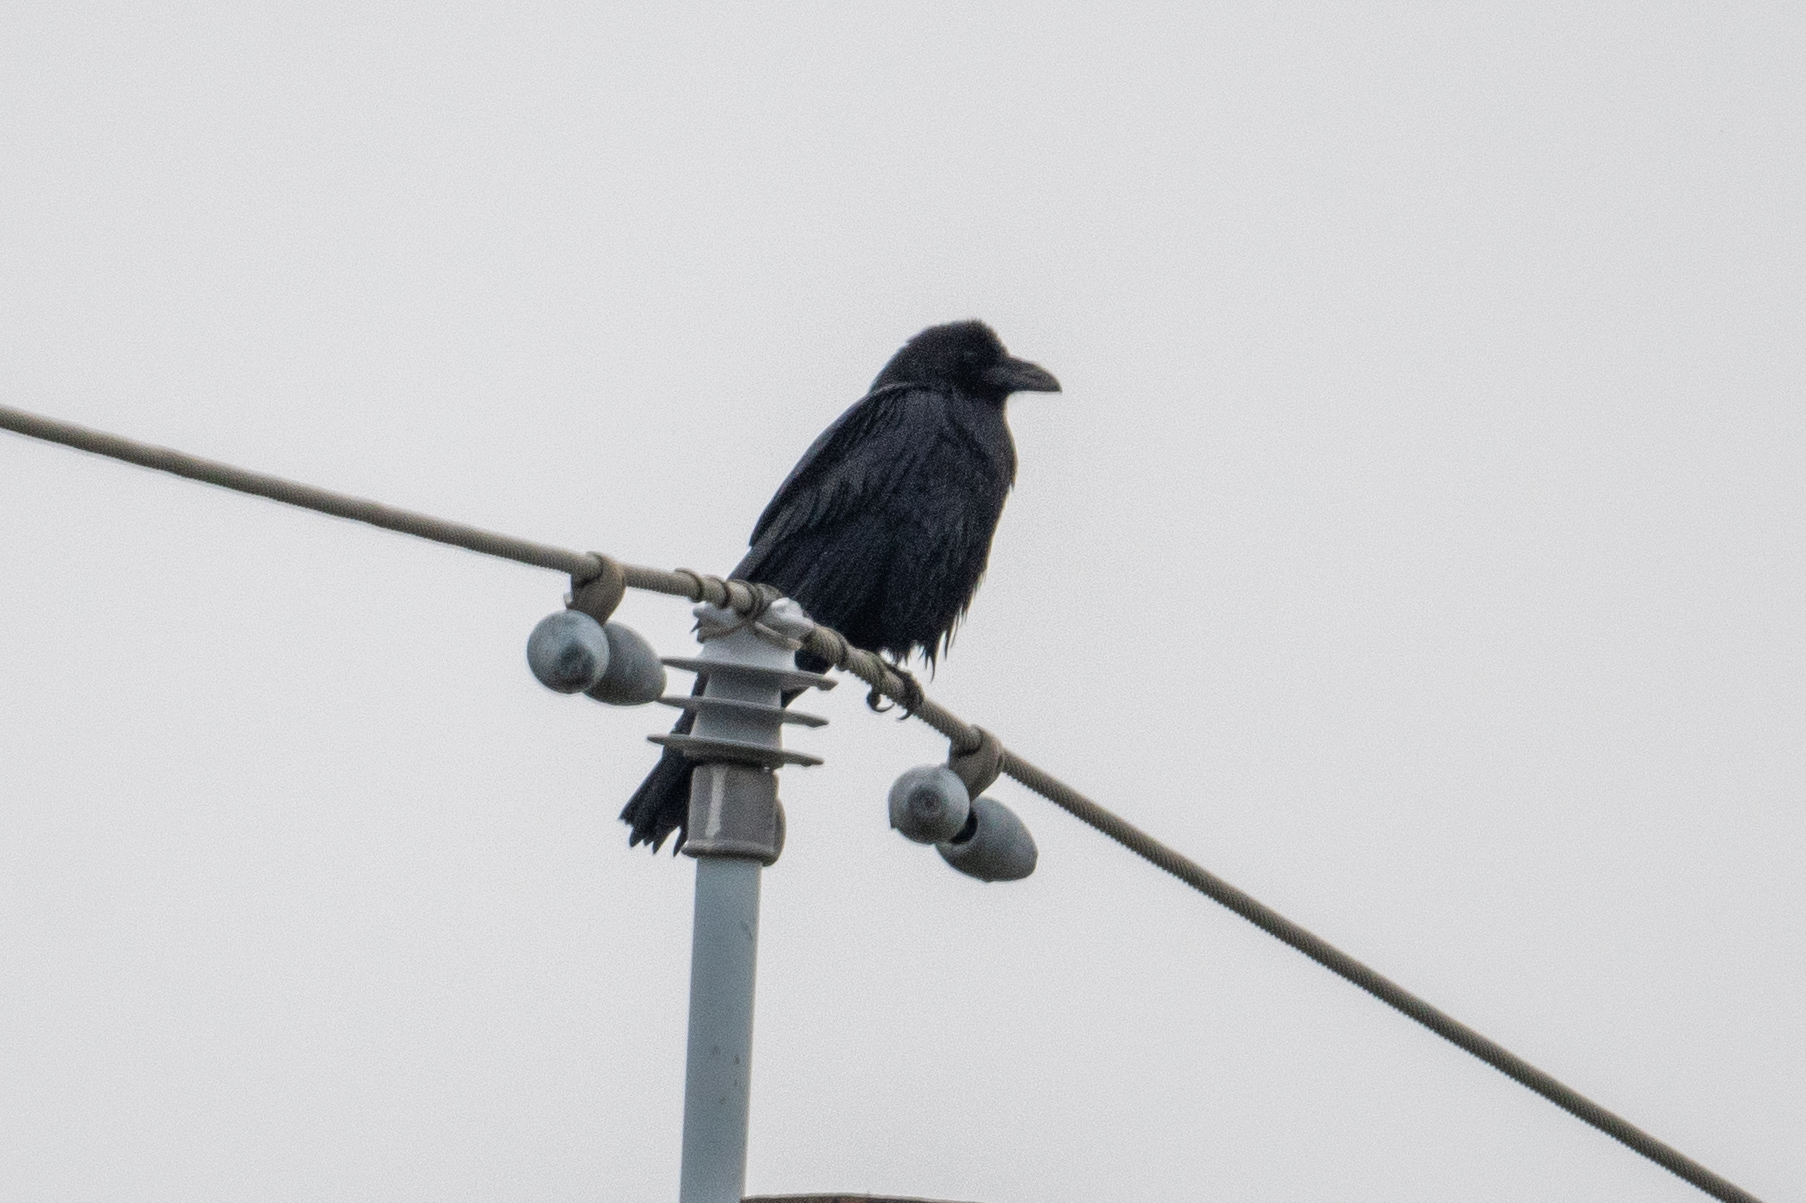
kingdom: Animalia
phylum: Chordata
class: Aves
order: Passeriformes
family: Corvidae
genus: Corvus
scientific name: Corvus corax
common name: Common raven
